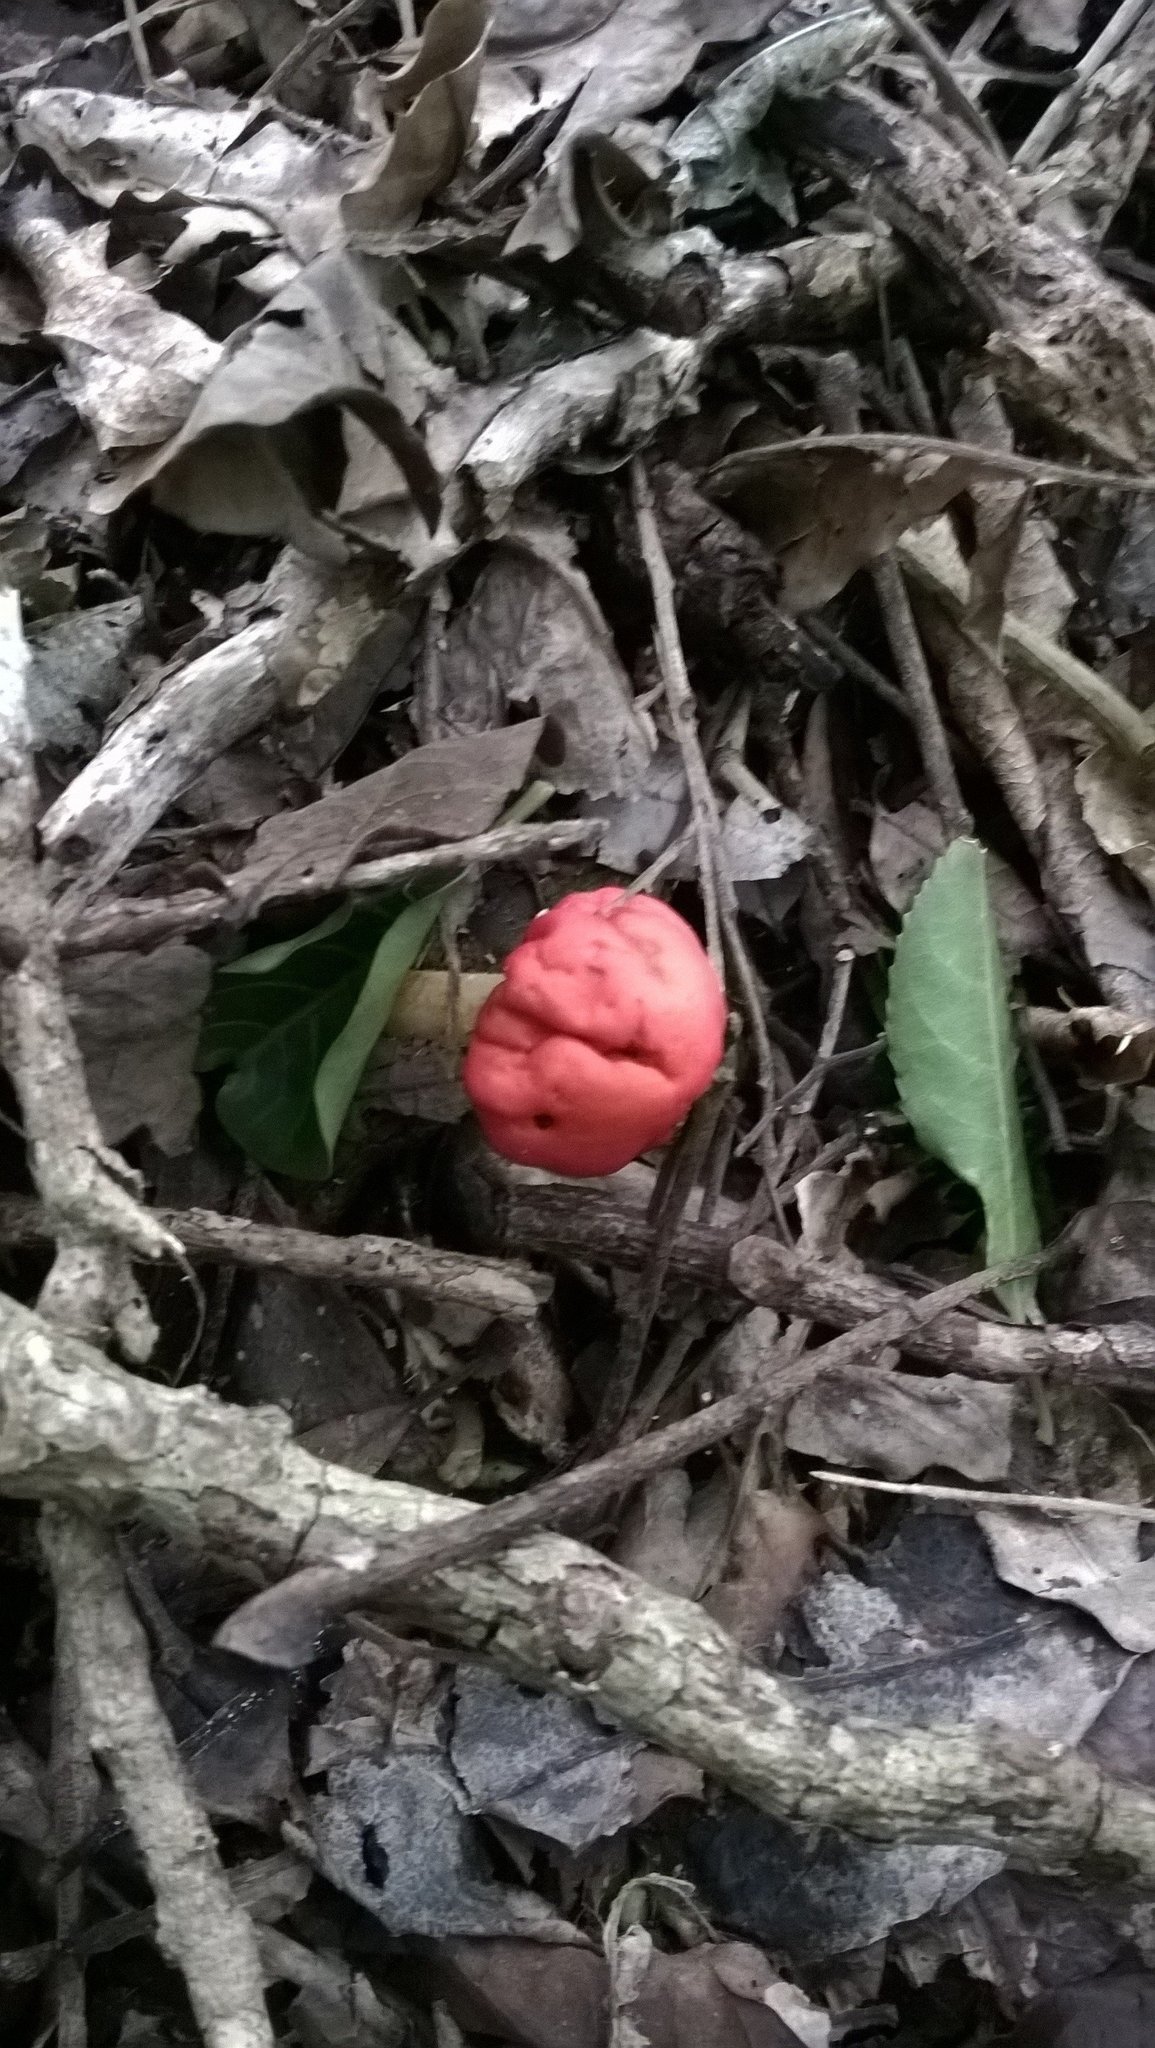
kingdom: Fungi
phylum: Basidiomycota
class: Agaricomycetes
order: Agaricales
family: Strophariaceae
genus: Leratiomyces
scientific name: Leratiomyces erythrocephalus
